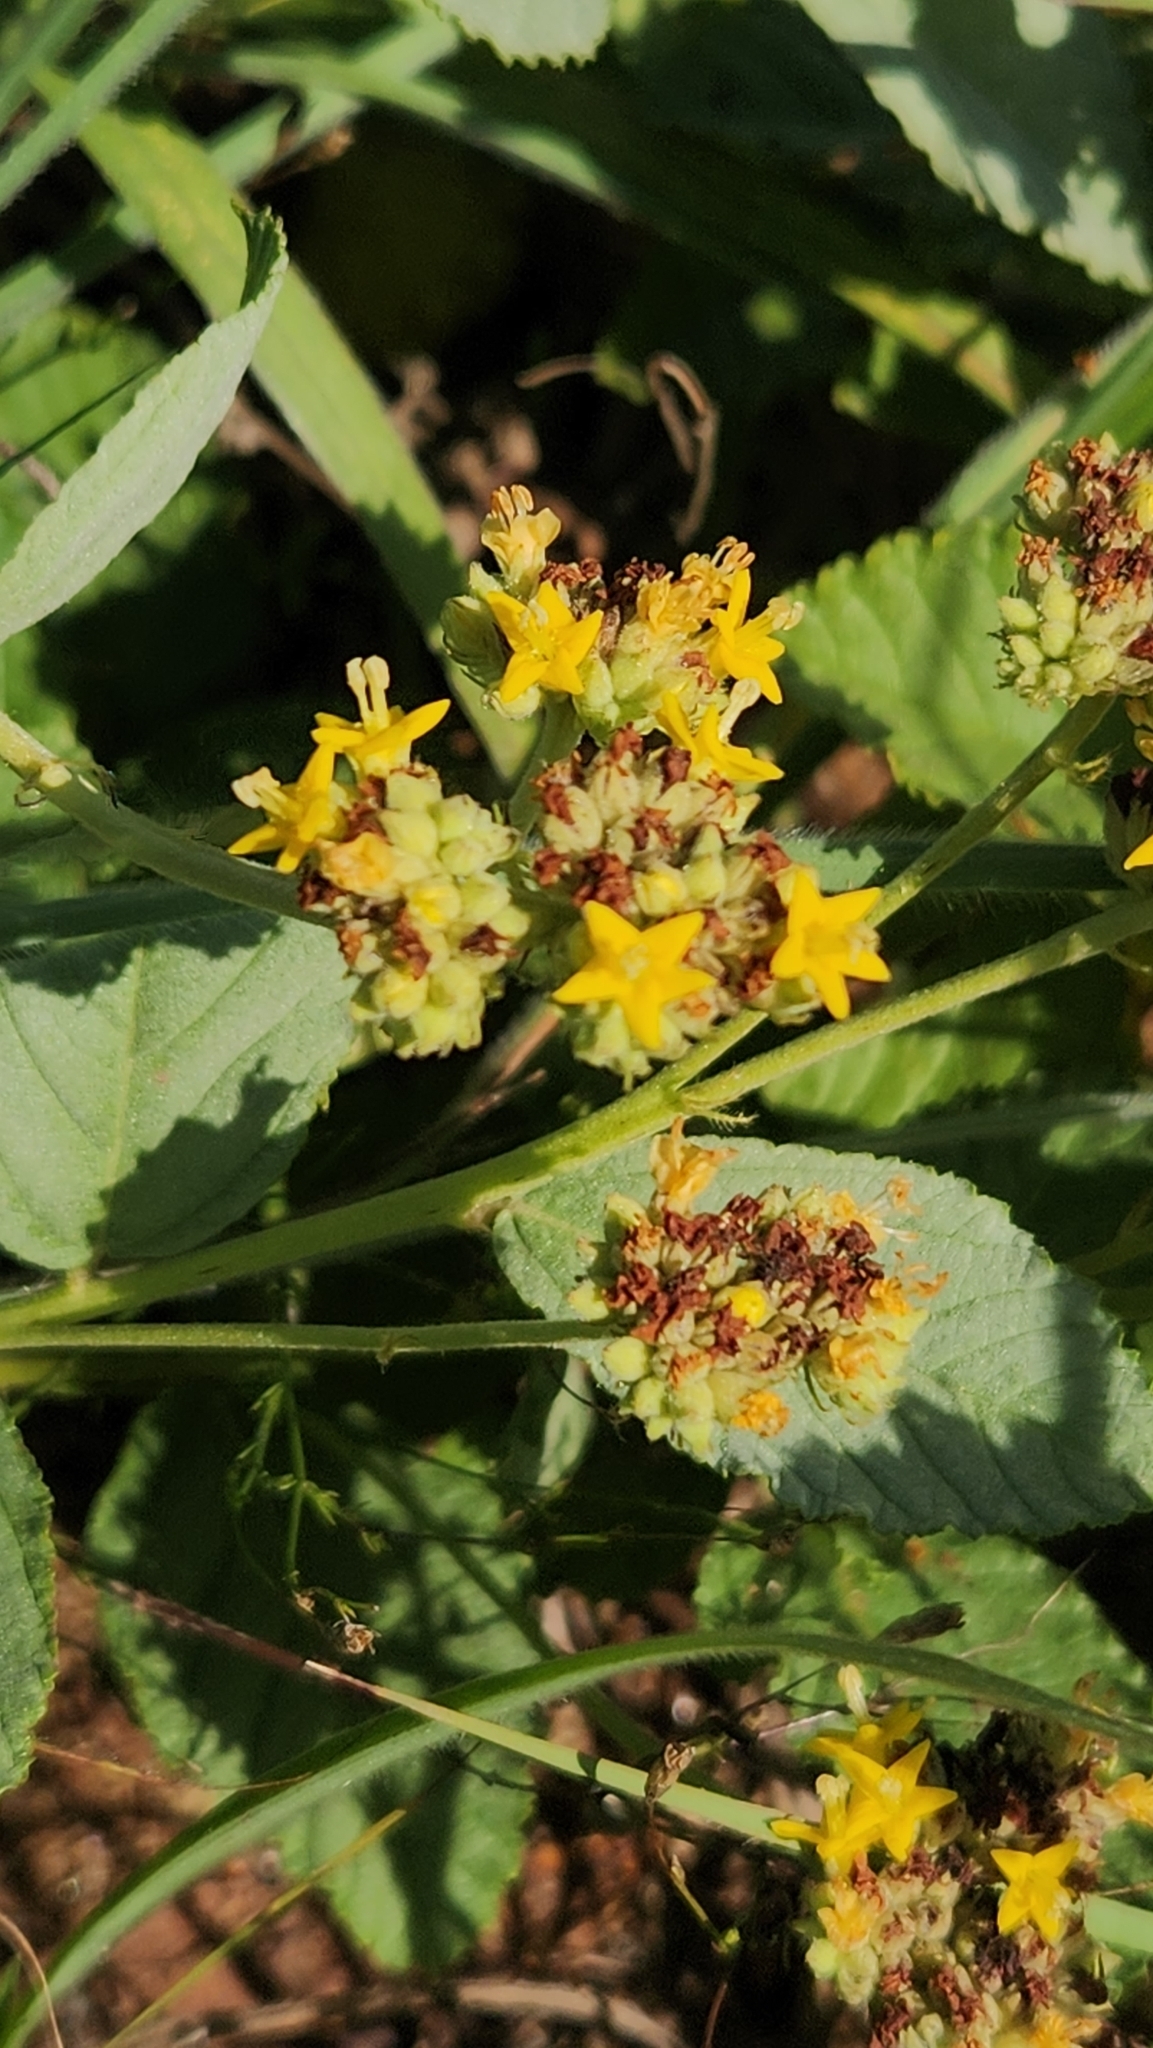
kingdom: Plantae
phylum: Tracheophyta
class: Magnoliopsida
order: Malvales
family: Malvaceae
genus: Waltheria
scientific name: Waltheria communis
